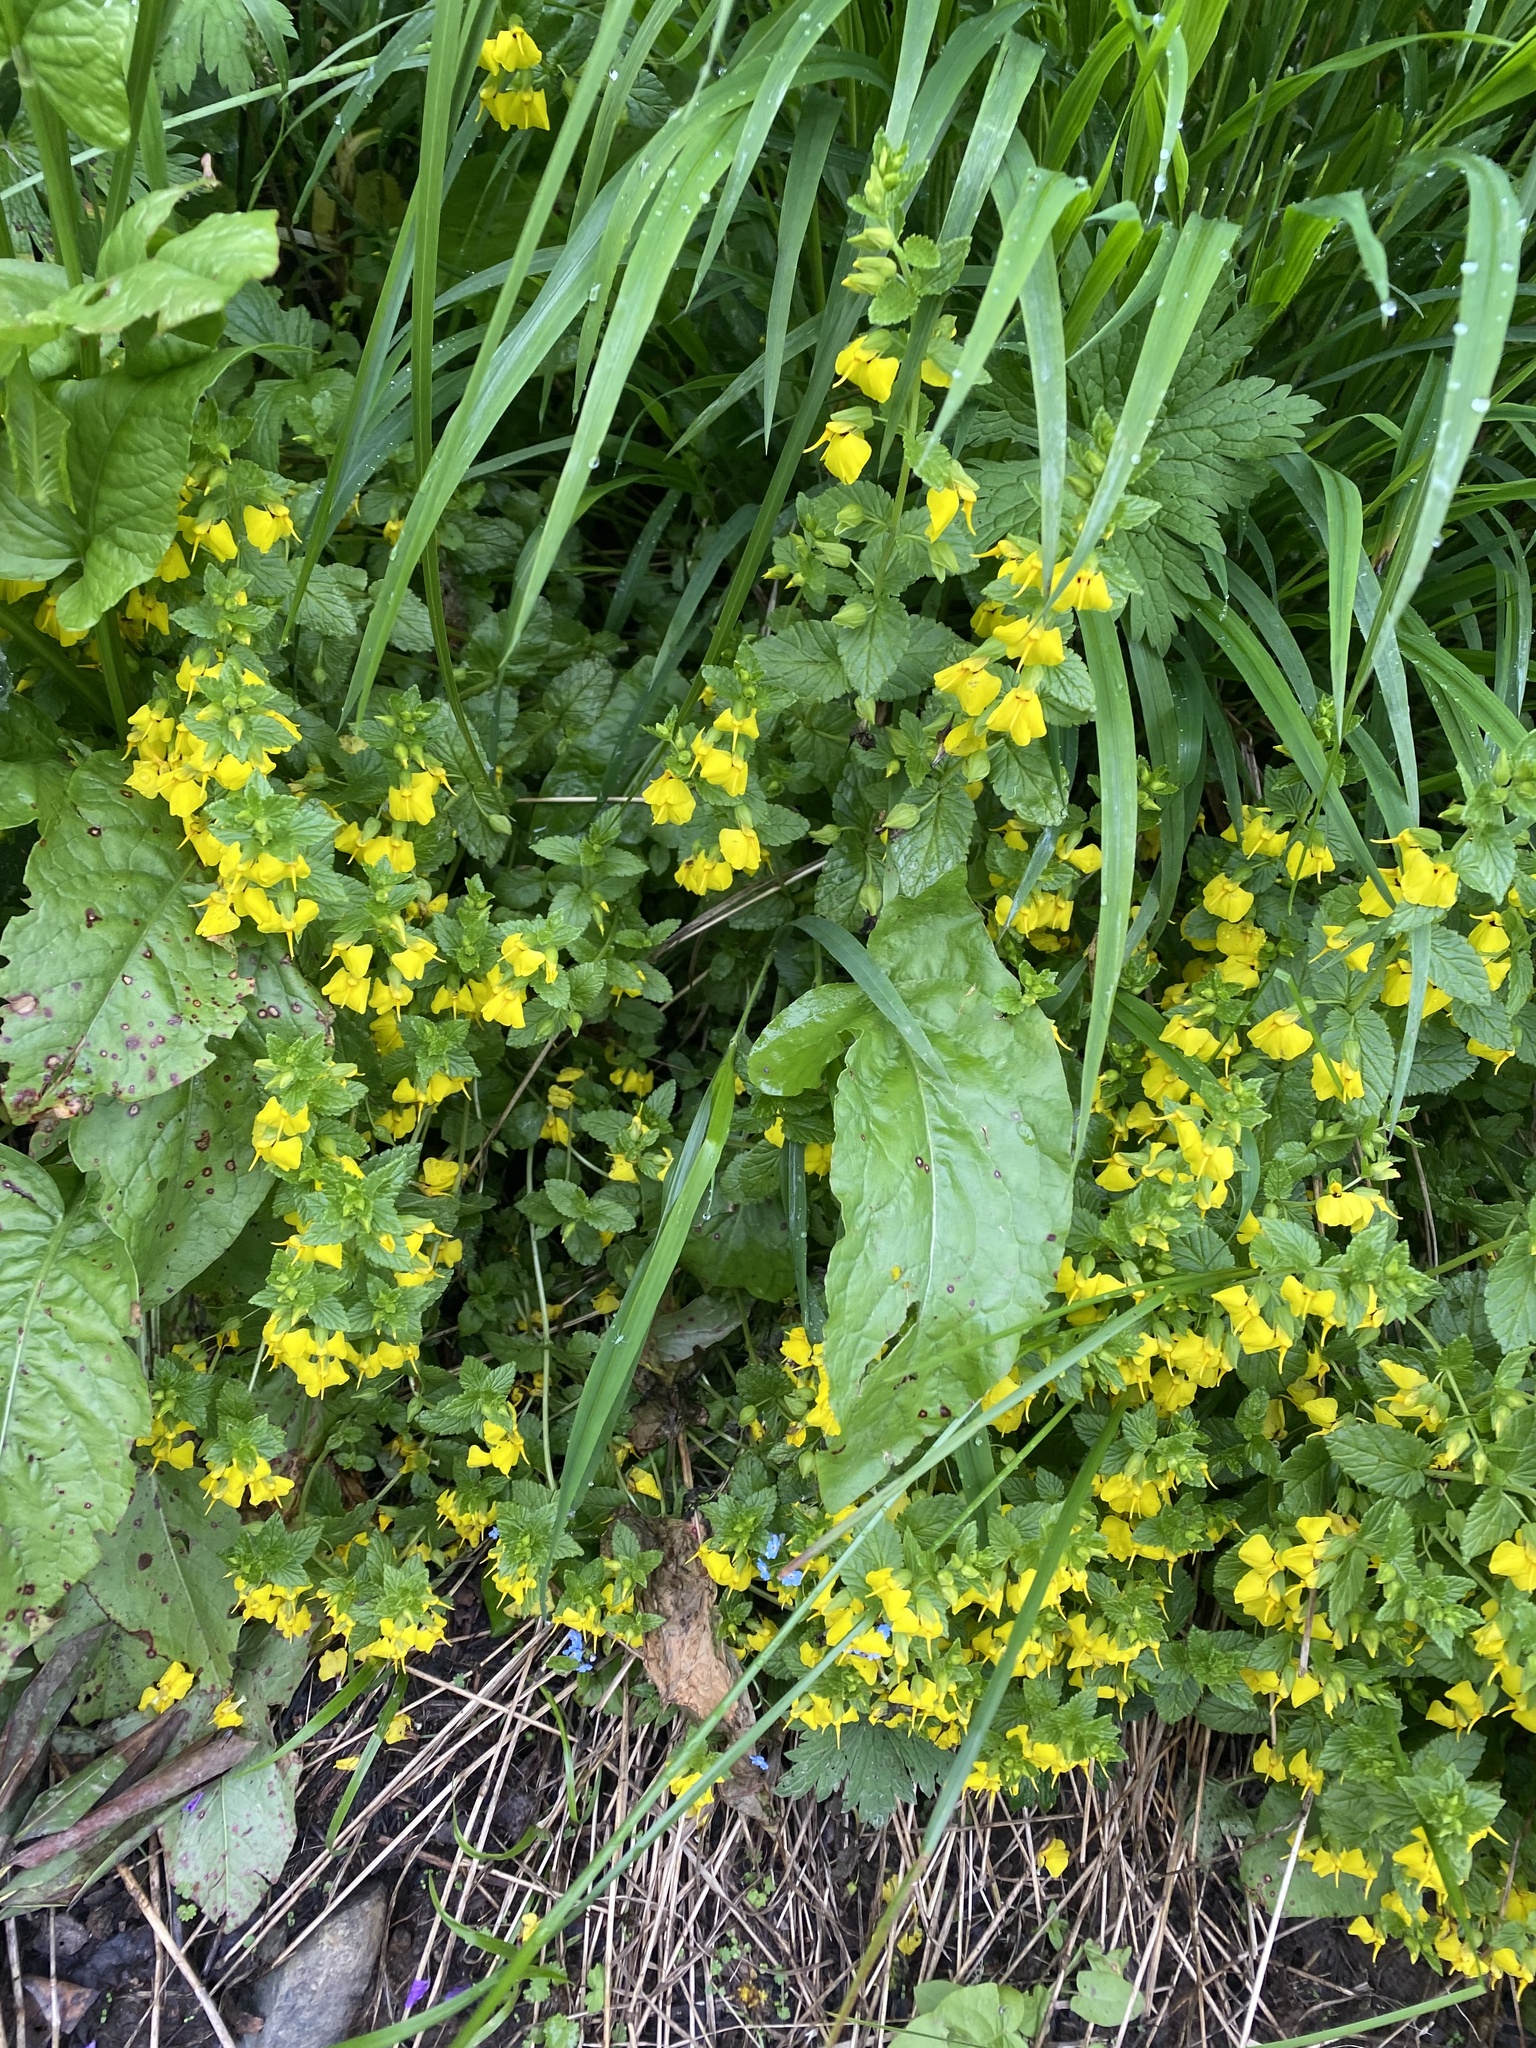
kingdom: Plantae
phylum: Tracheophyta
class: Magnoliopsida
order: Lamiales
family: Orobanchaceae
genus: Rhynchocorys
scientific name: Rhynchocorys elephas
